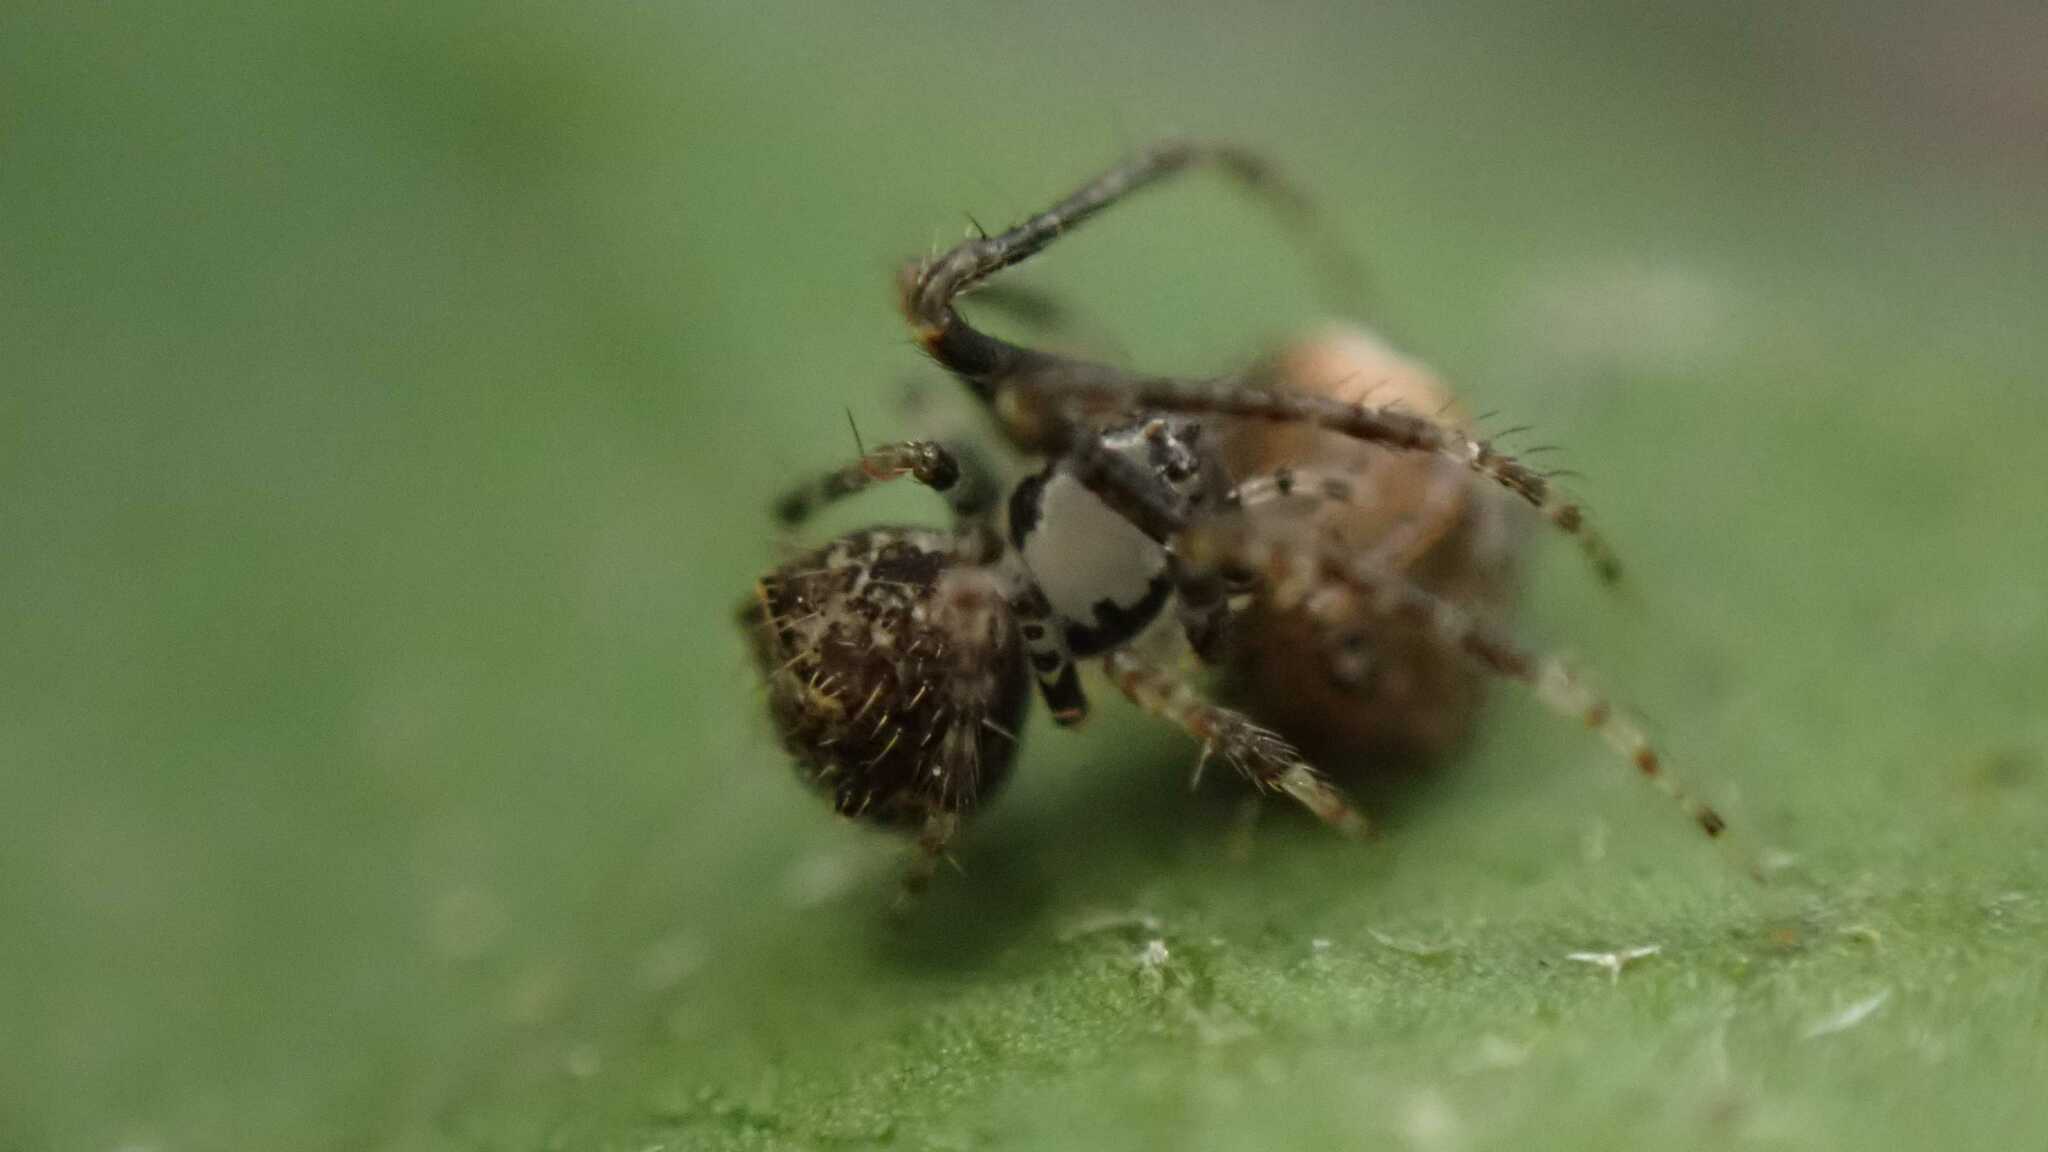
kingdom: Animalia
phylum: Arthropoda
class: Arachnida
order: Araneae
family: Mimetidae
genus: Ero
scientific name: Ero aphana
